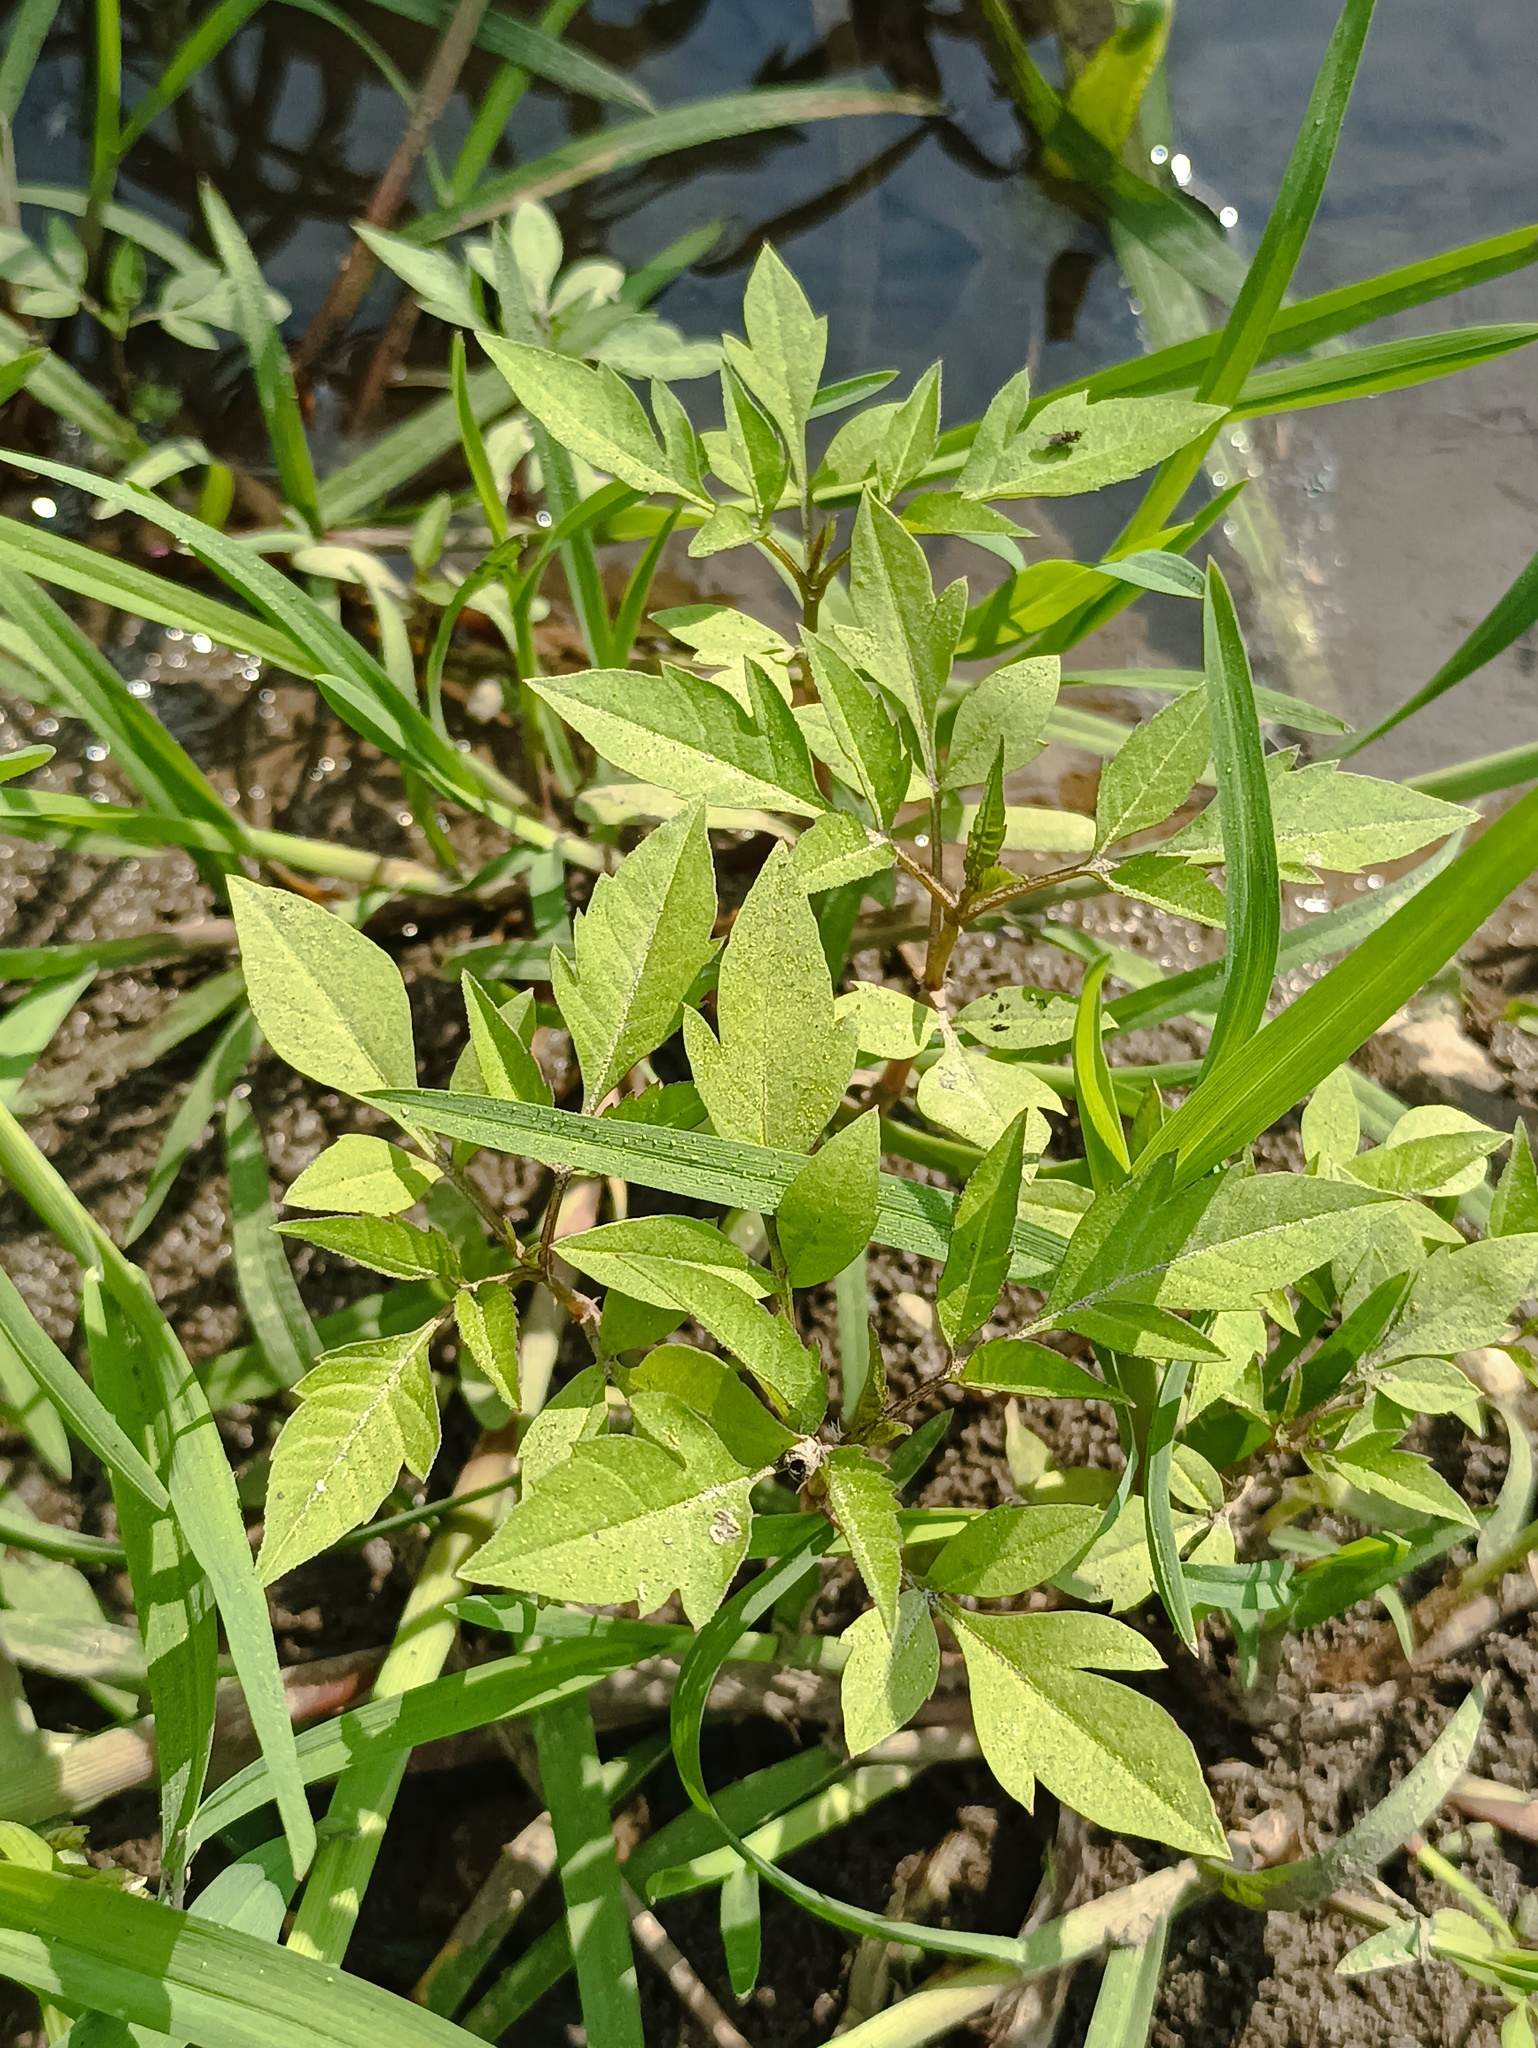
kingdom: Plantae
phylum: Tracheophyta
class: Magnoliopsida
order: Asterales
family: Asteraceae
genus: Bidens
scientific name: Bidens frondosa
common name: Beggarticks
